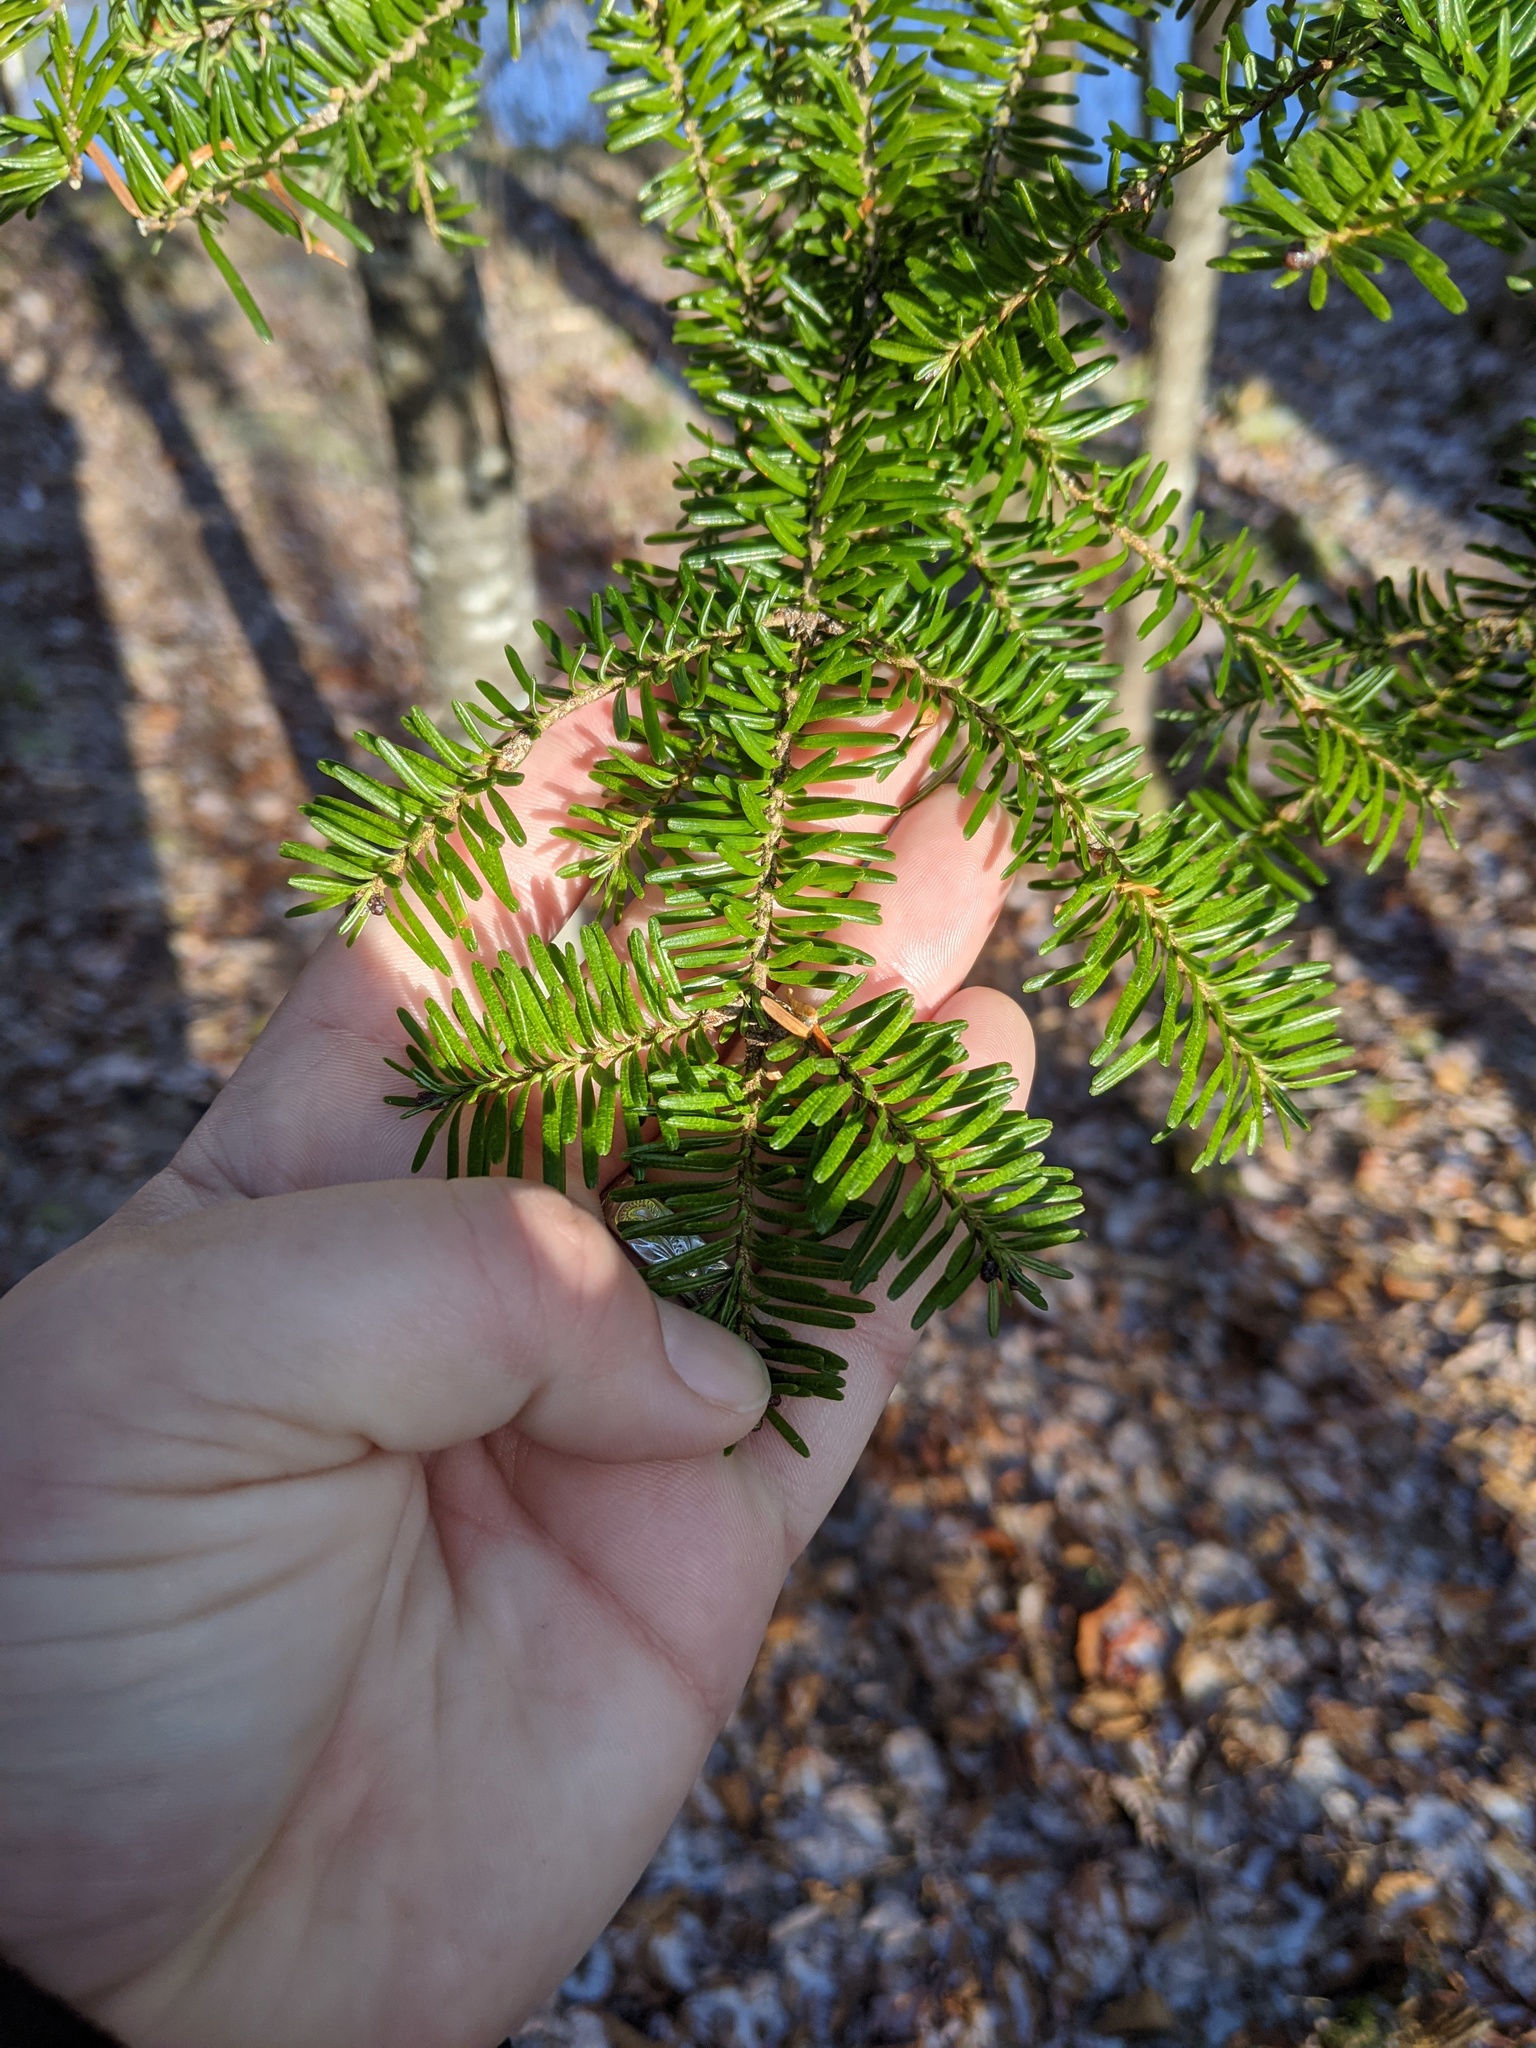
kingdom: Plantae
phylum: Tracheophyta
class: Pinopsida
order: Pinales
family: Pinaceae
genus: Abies
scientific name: Abies balsamea
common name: Balsam fir
